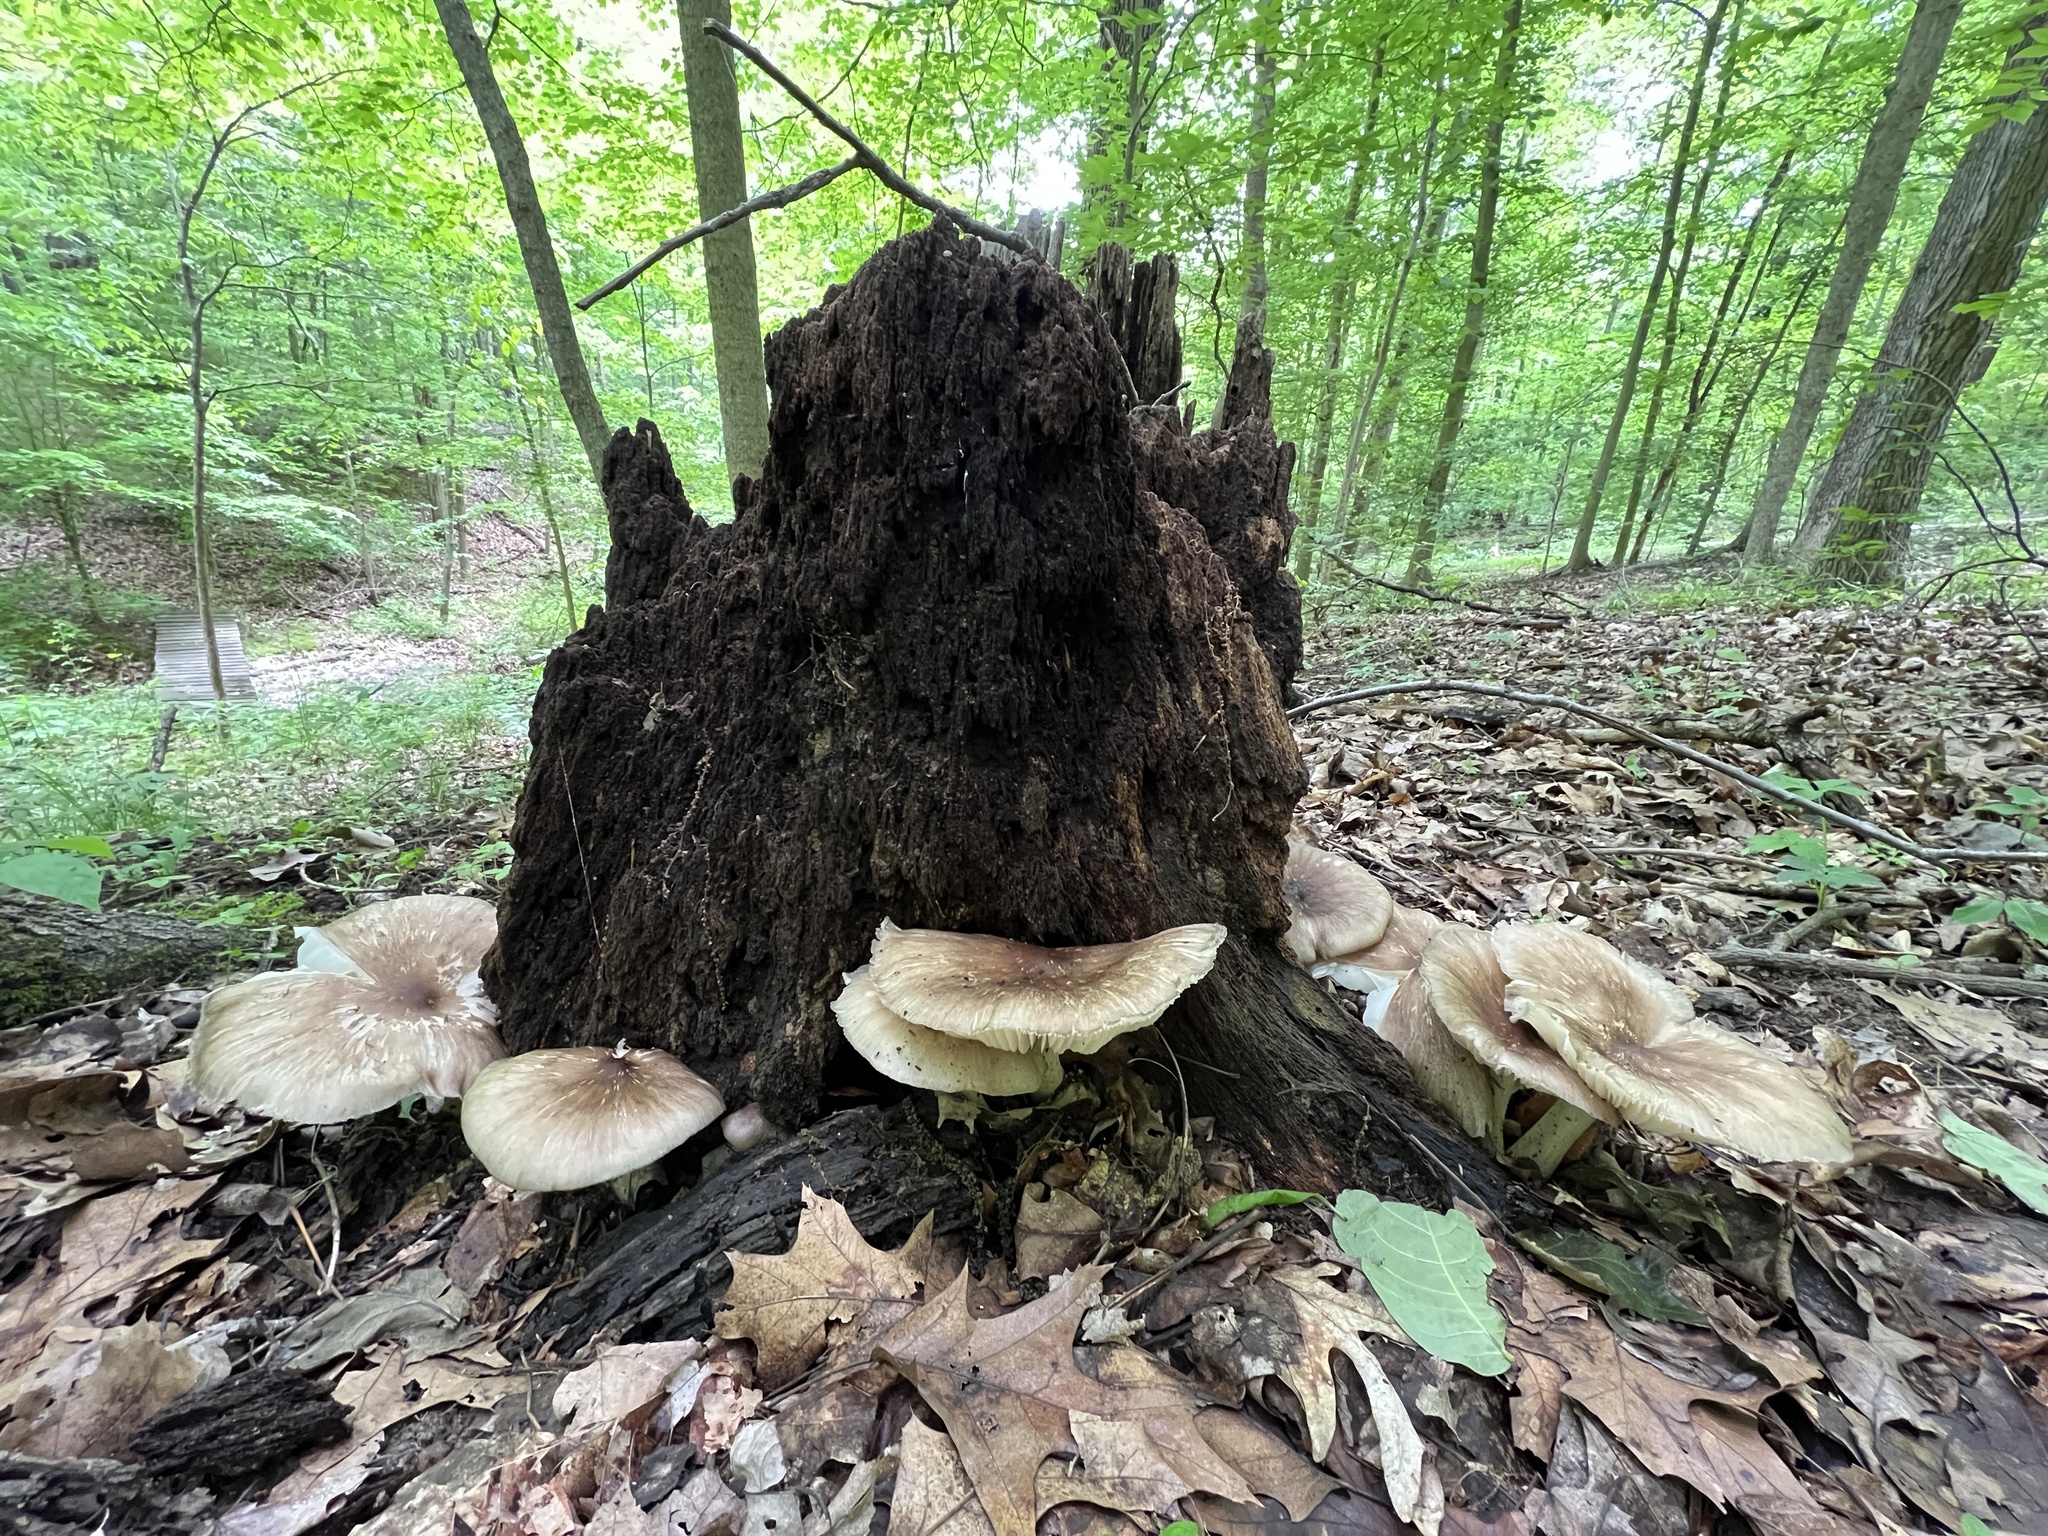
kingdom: Fungi
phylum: Basidiomycota
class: Agaricomycetes
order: Agaricales
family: Tricholomataceae
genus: Megacollybia
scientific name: Megacollybia rodmanii
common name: Eastern american platterful mushroom
